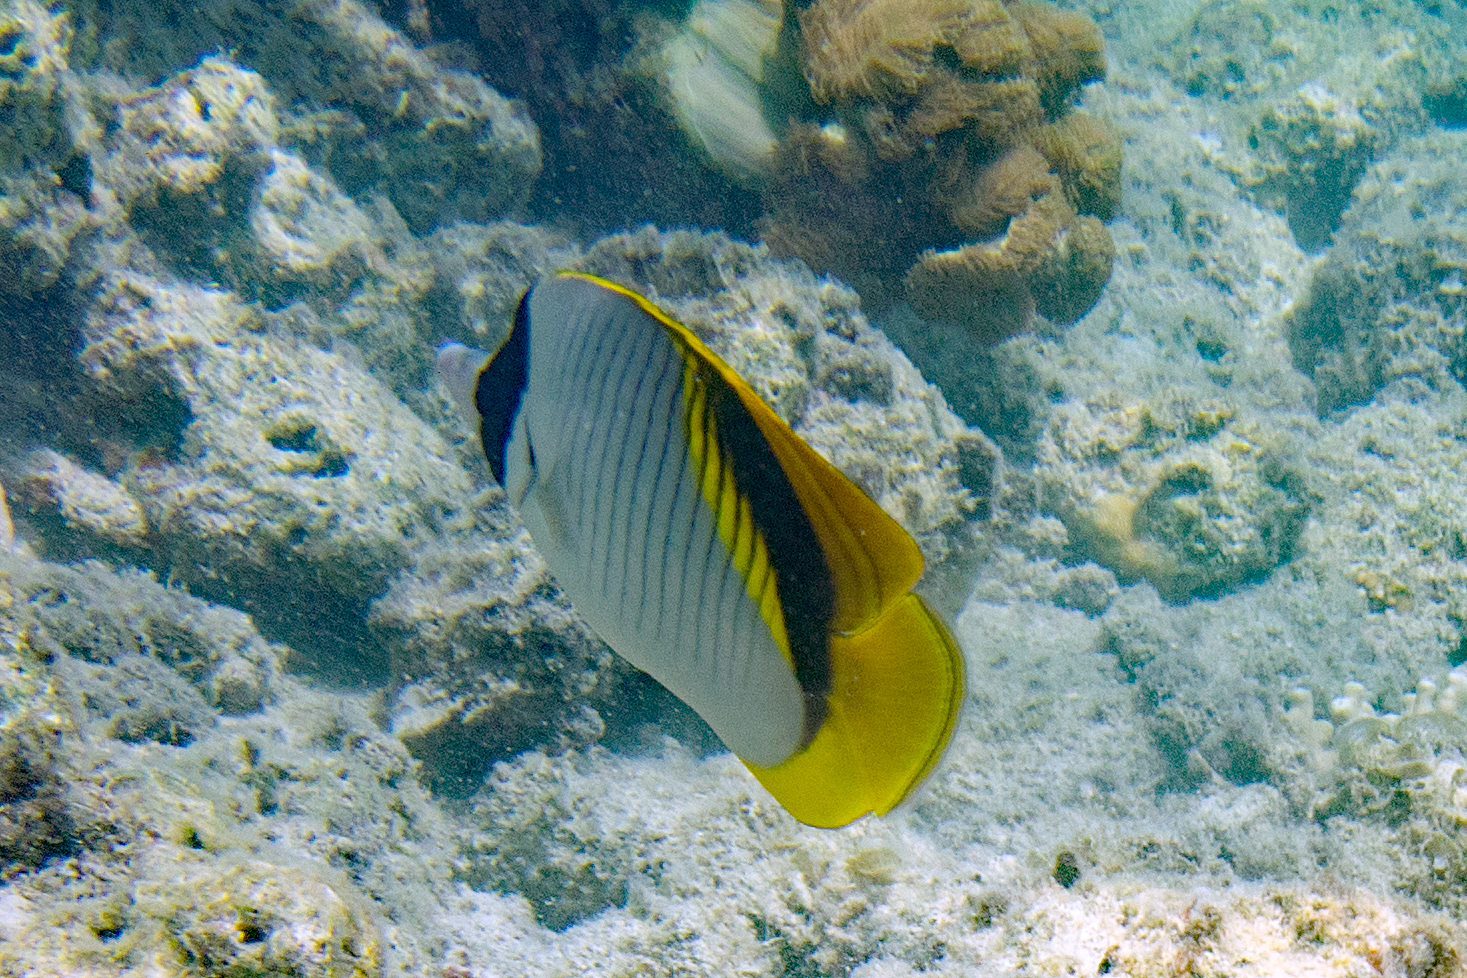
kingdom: Animalia
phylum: Chordata
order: Perciformes
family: Chaetodontidae
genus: Chaetodon
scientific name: Chaetodon lineolatus
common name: Lined butterflyfish
